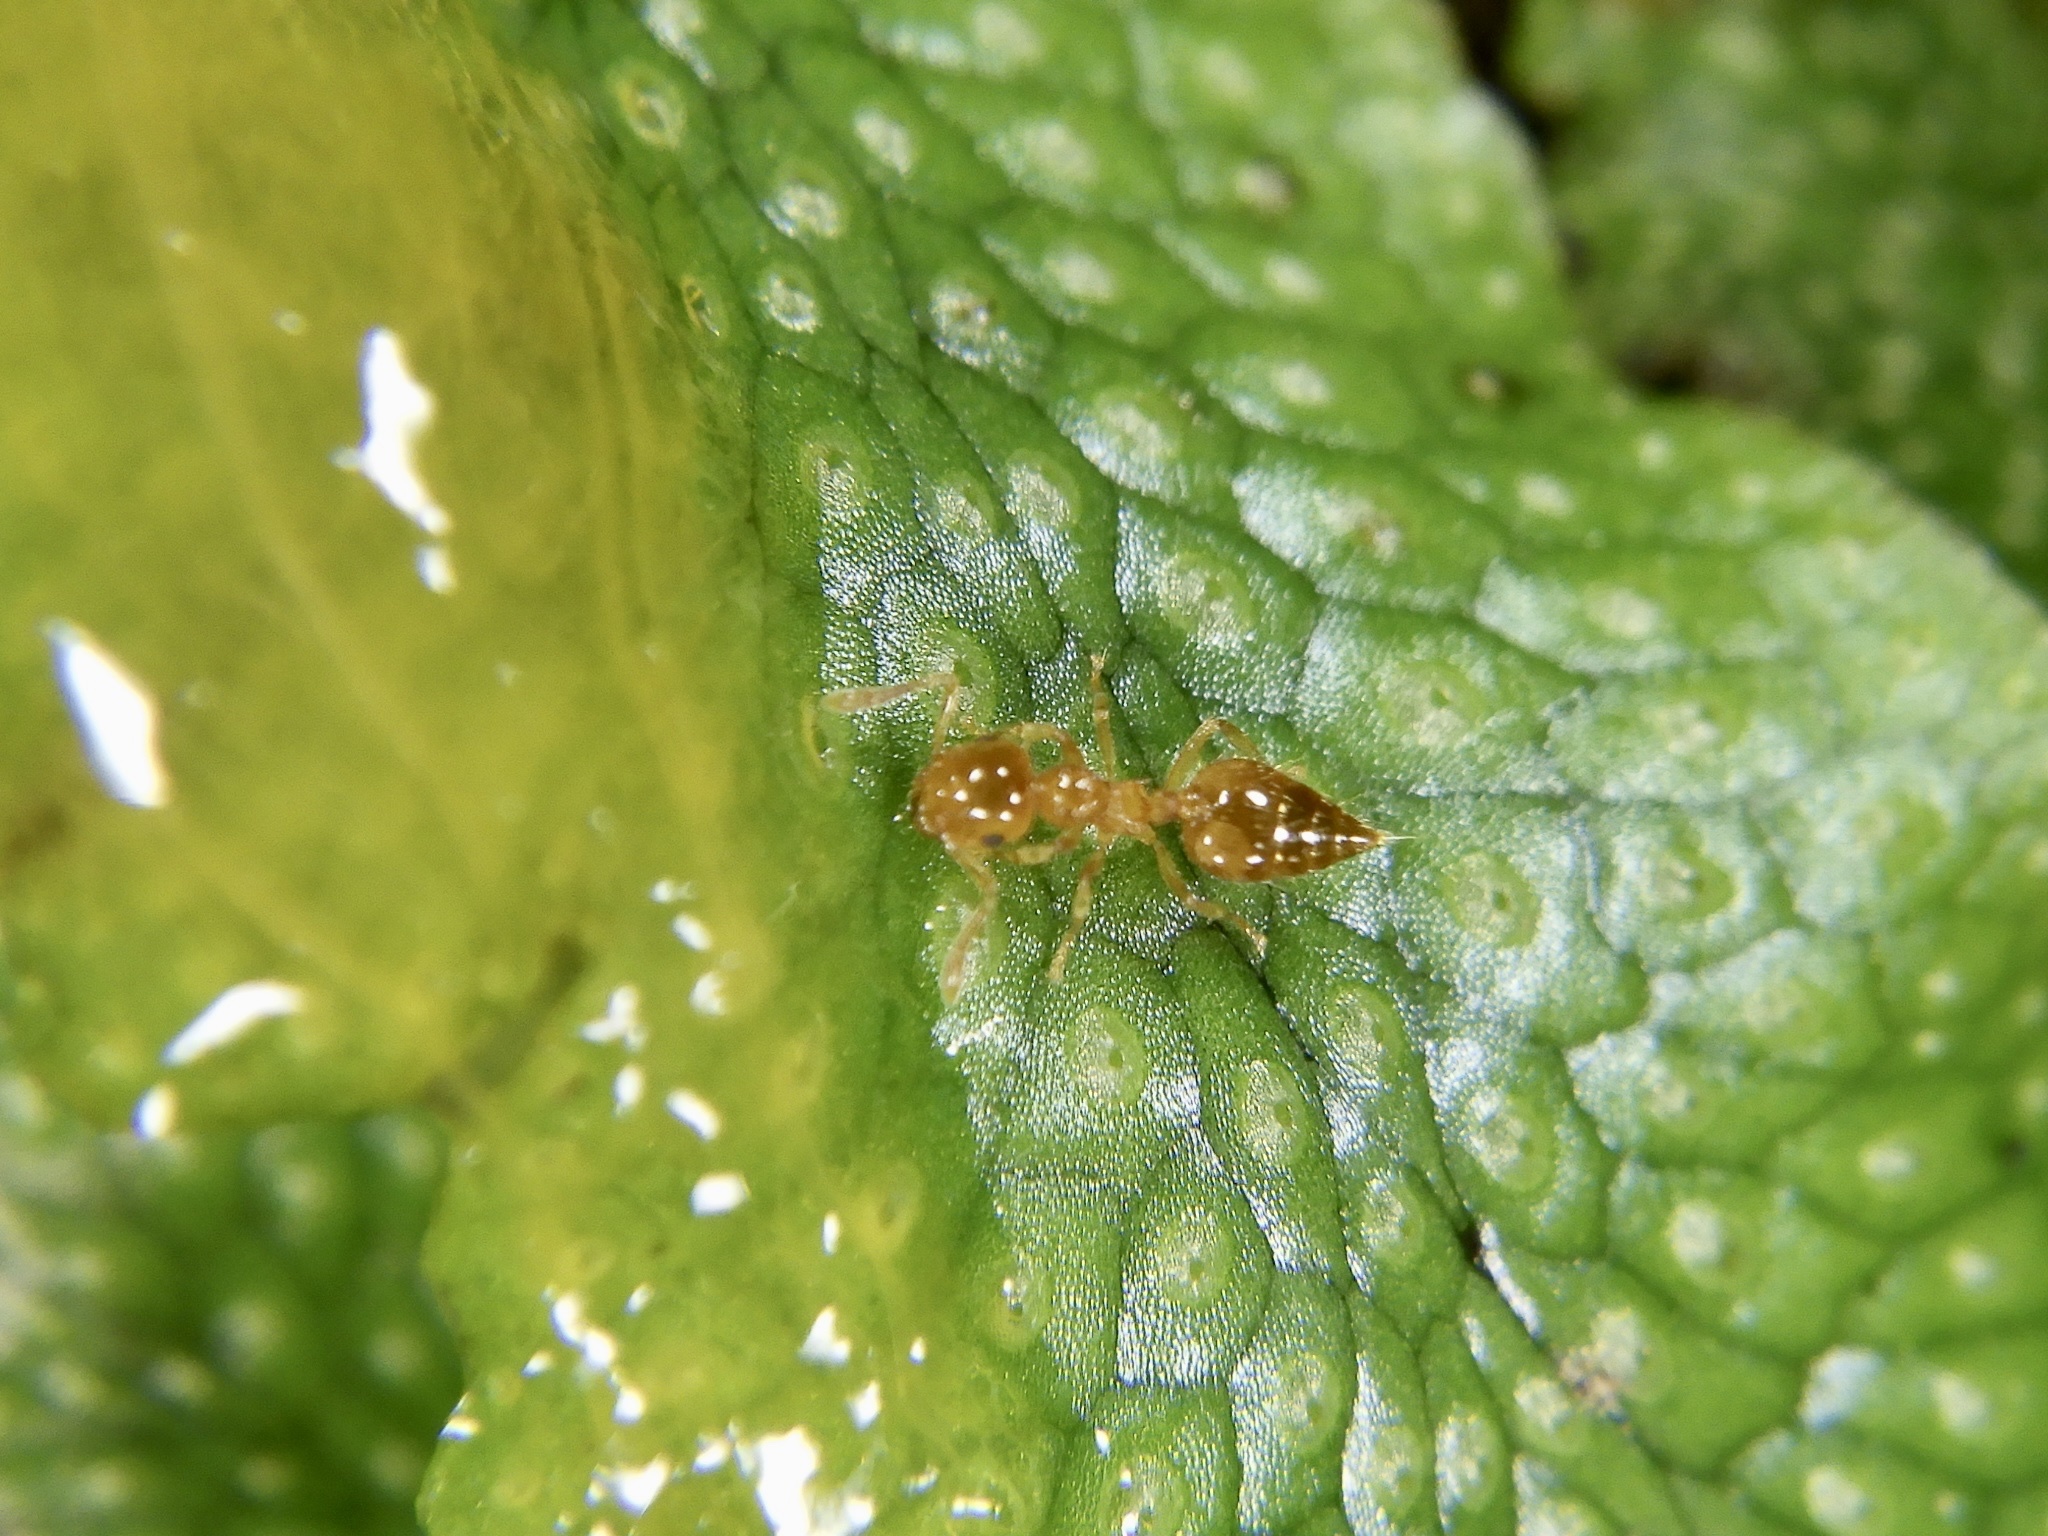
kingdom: Animalia
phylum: Arthropoda
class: Insecta
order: Hymenoptera
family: Formicidae
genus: Crematogaster
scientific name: Crematogaster osakensis
